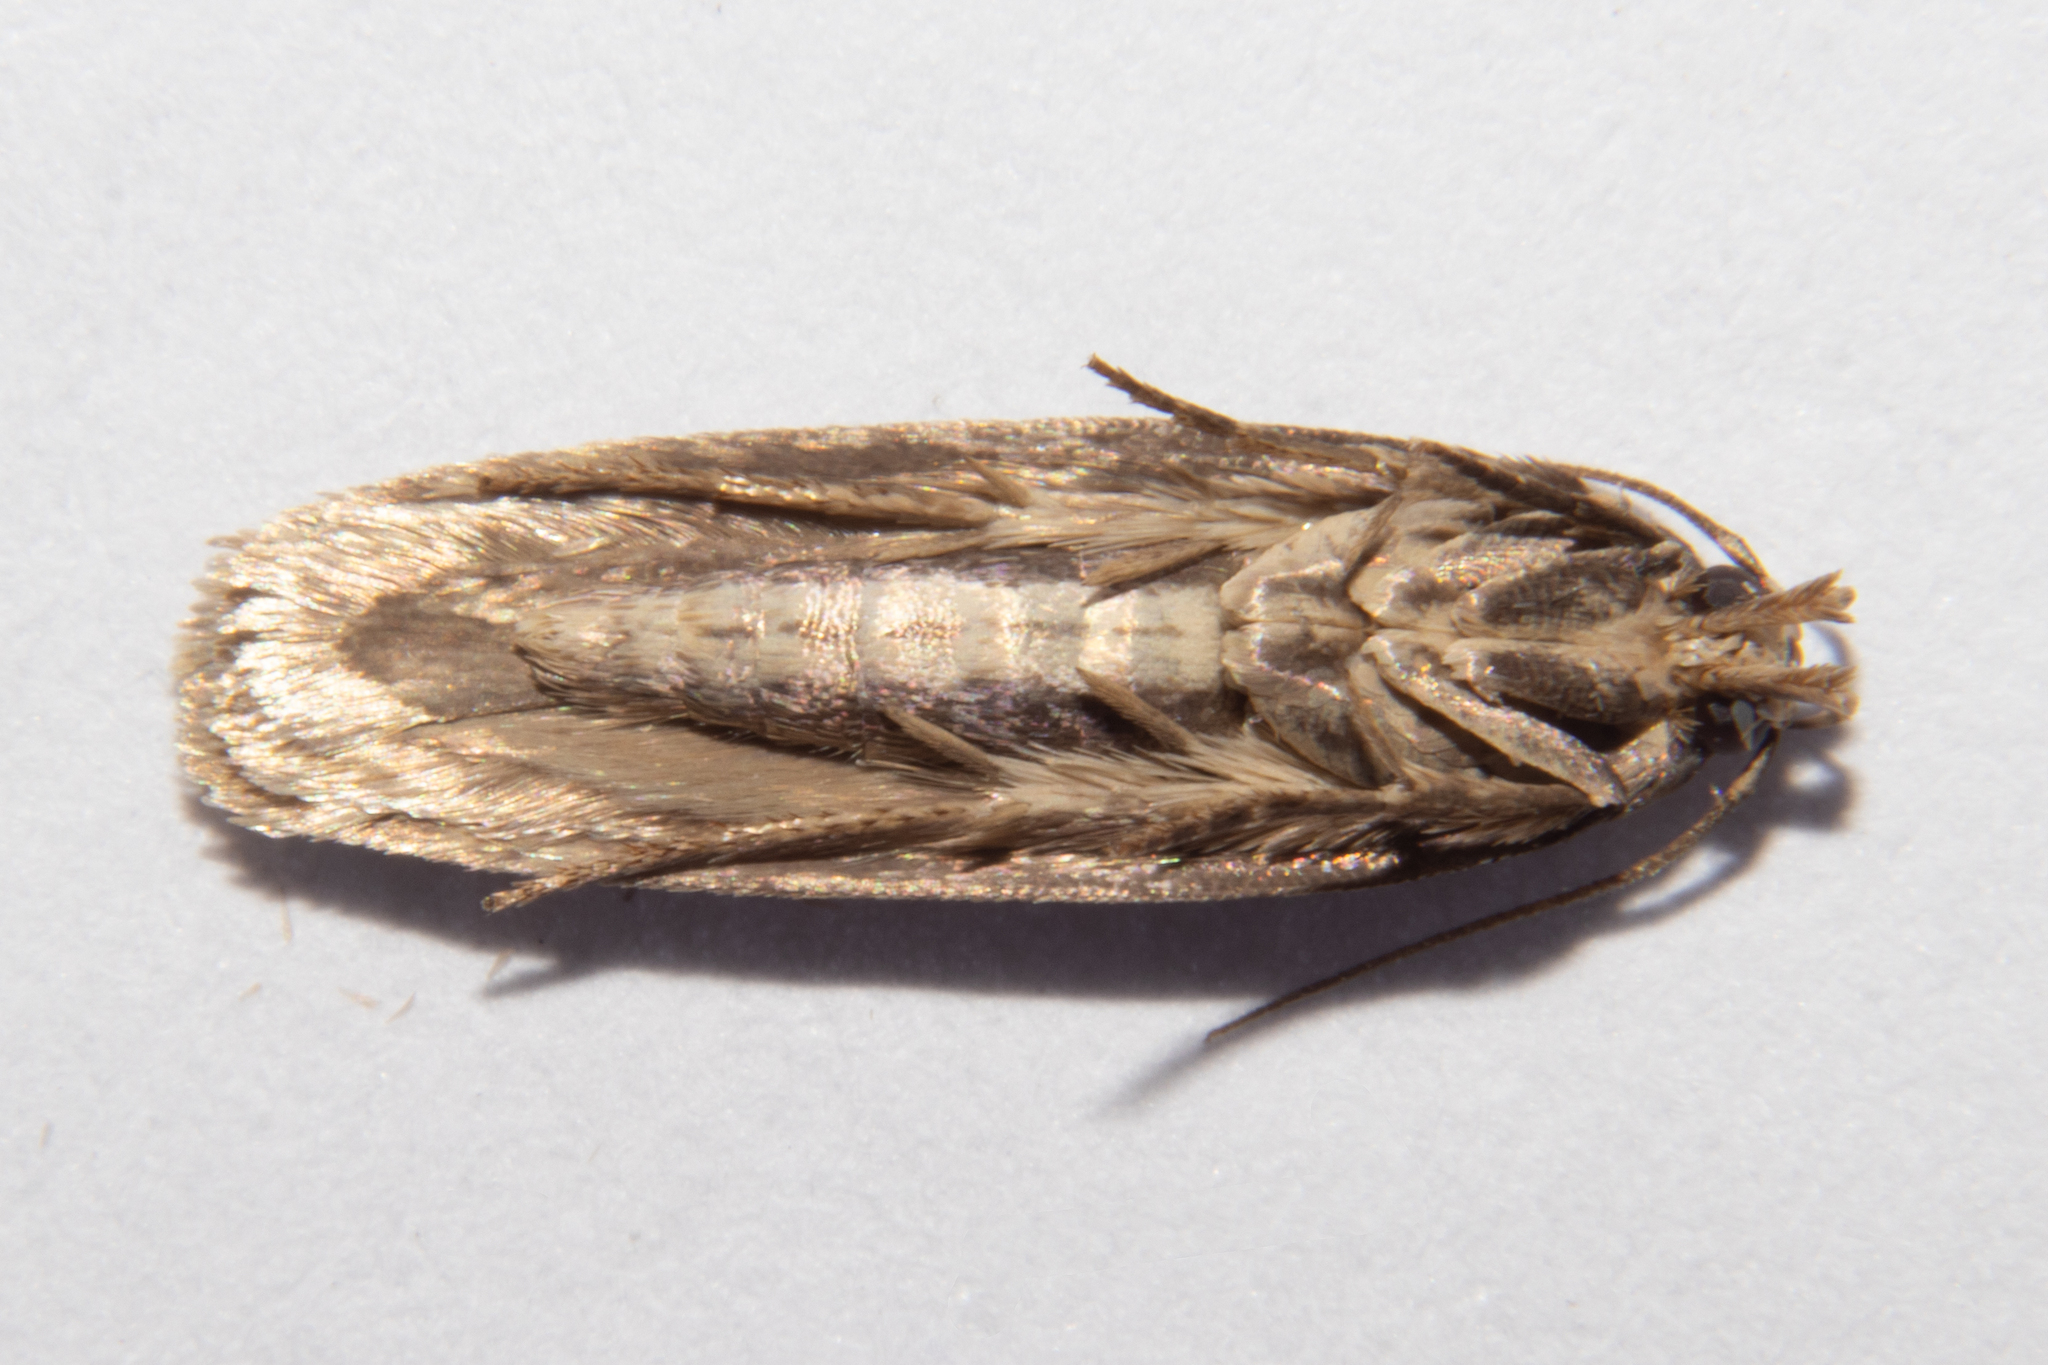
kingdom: Animalia
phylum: Arthropoda
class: Insecta
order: Lepidoptera
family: Gelechiidae
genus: Platyedra
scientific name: Platyedra subcinerea
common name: Moth
